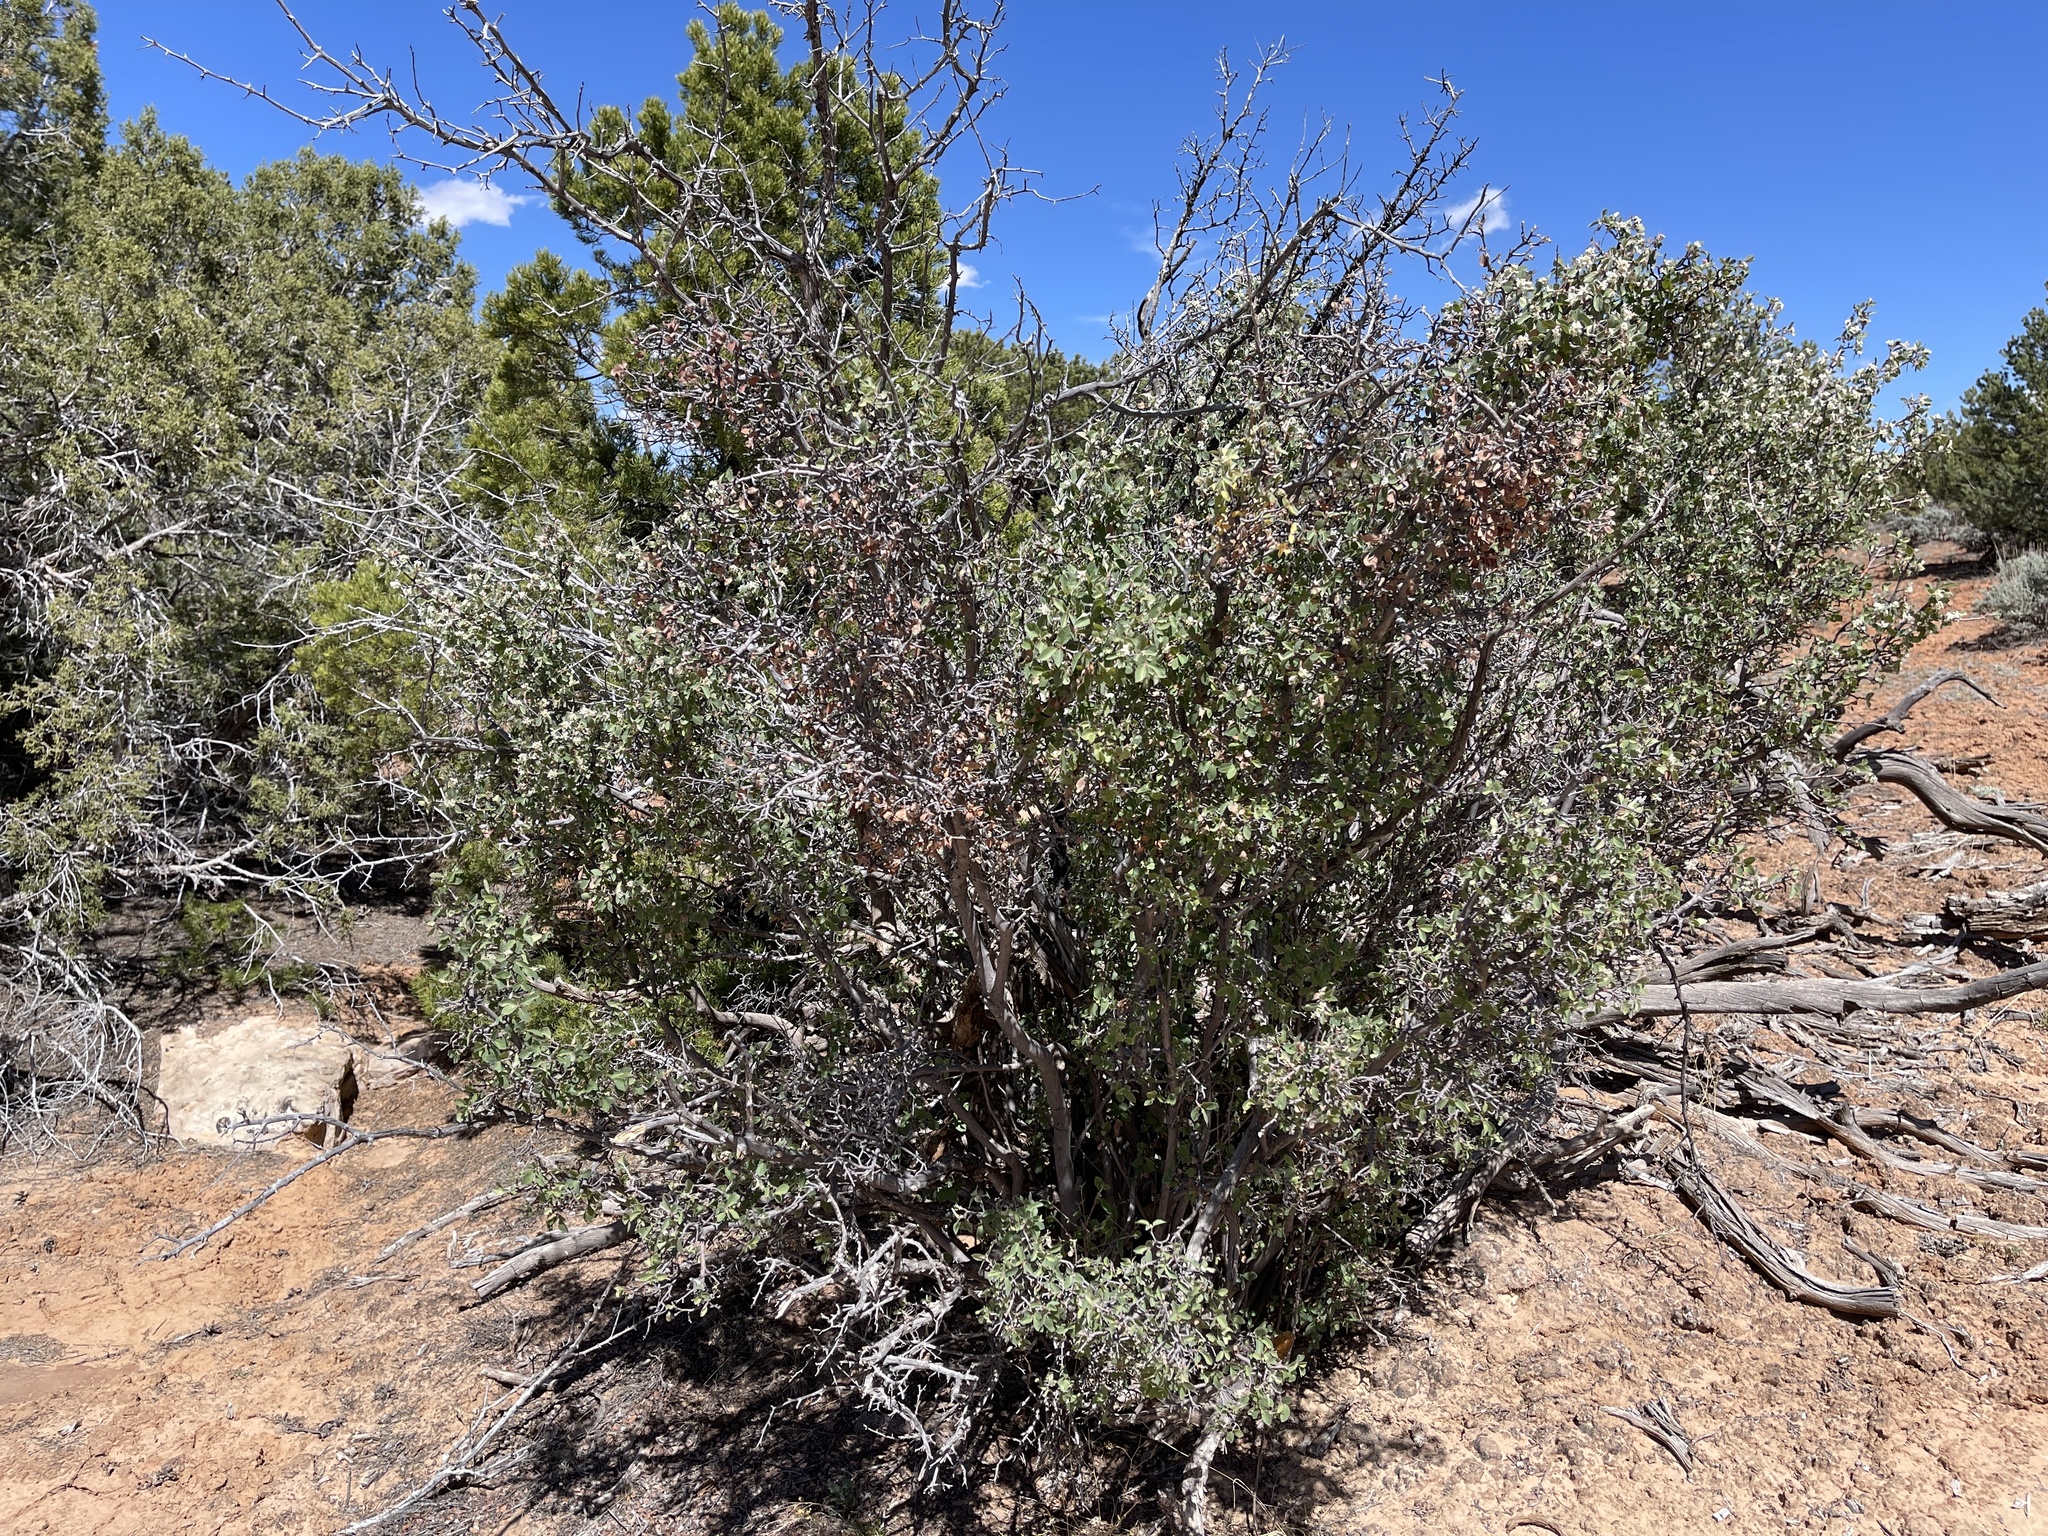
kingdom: Plantae
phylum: Tracheophyta
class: Magnoliopsida
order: Rosales
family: Rosaceae
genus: Amelanchier
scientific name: Amelanchier utahensis
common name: Utah serviceberry
